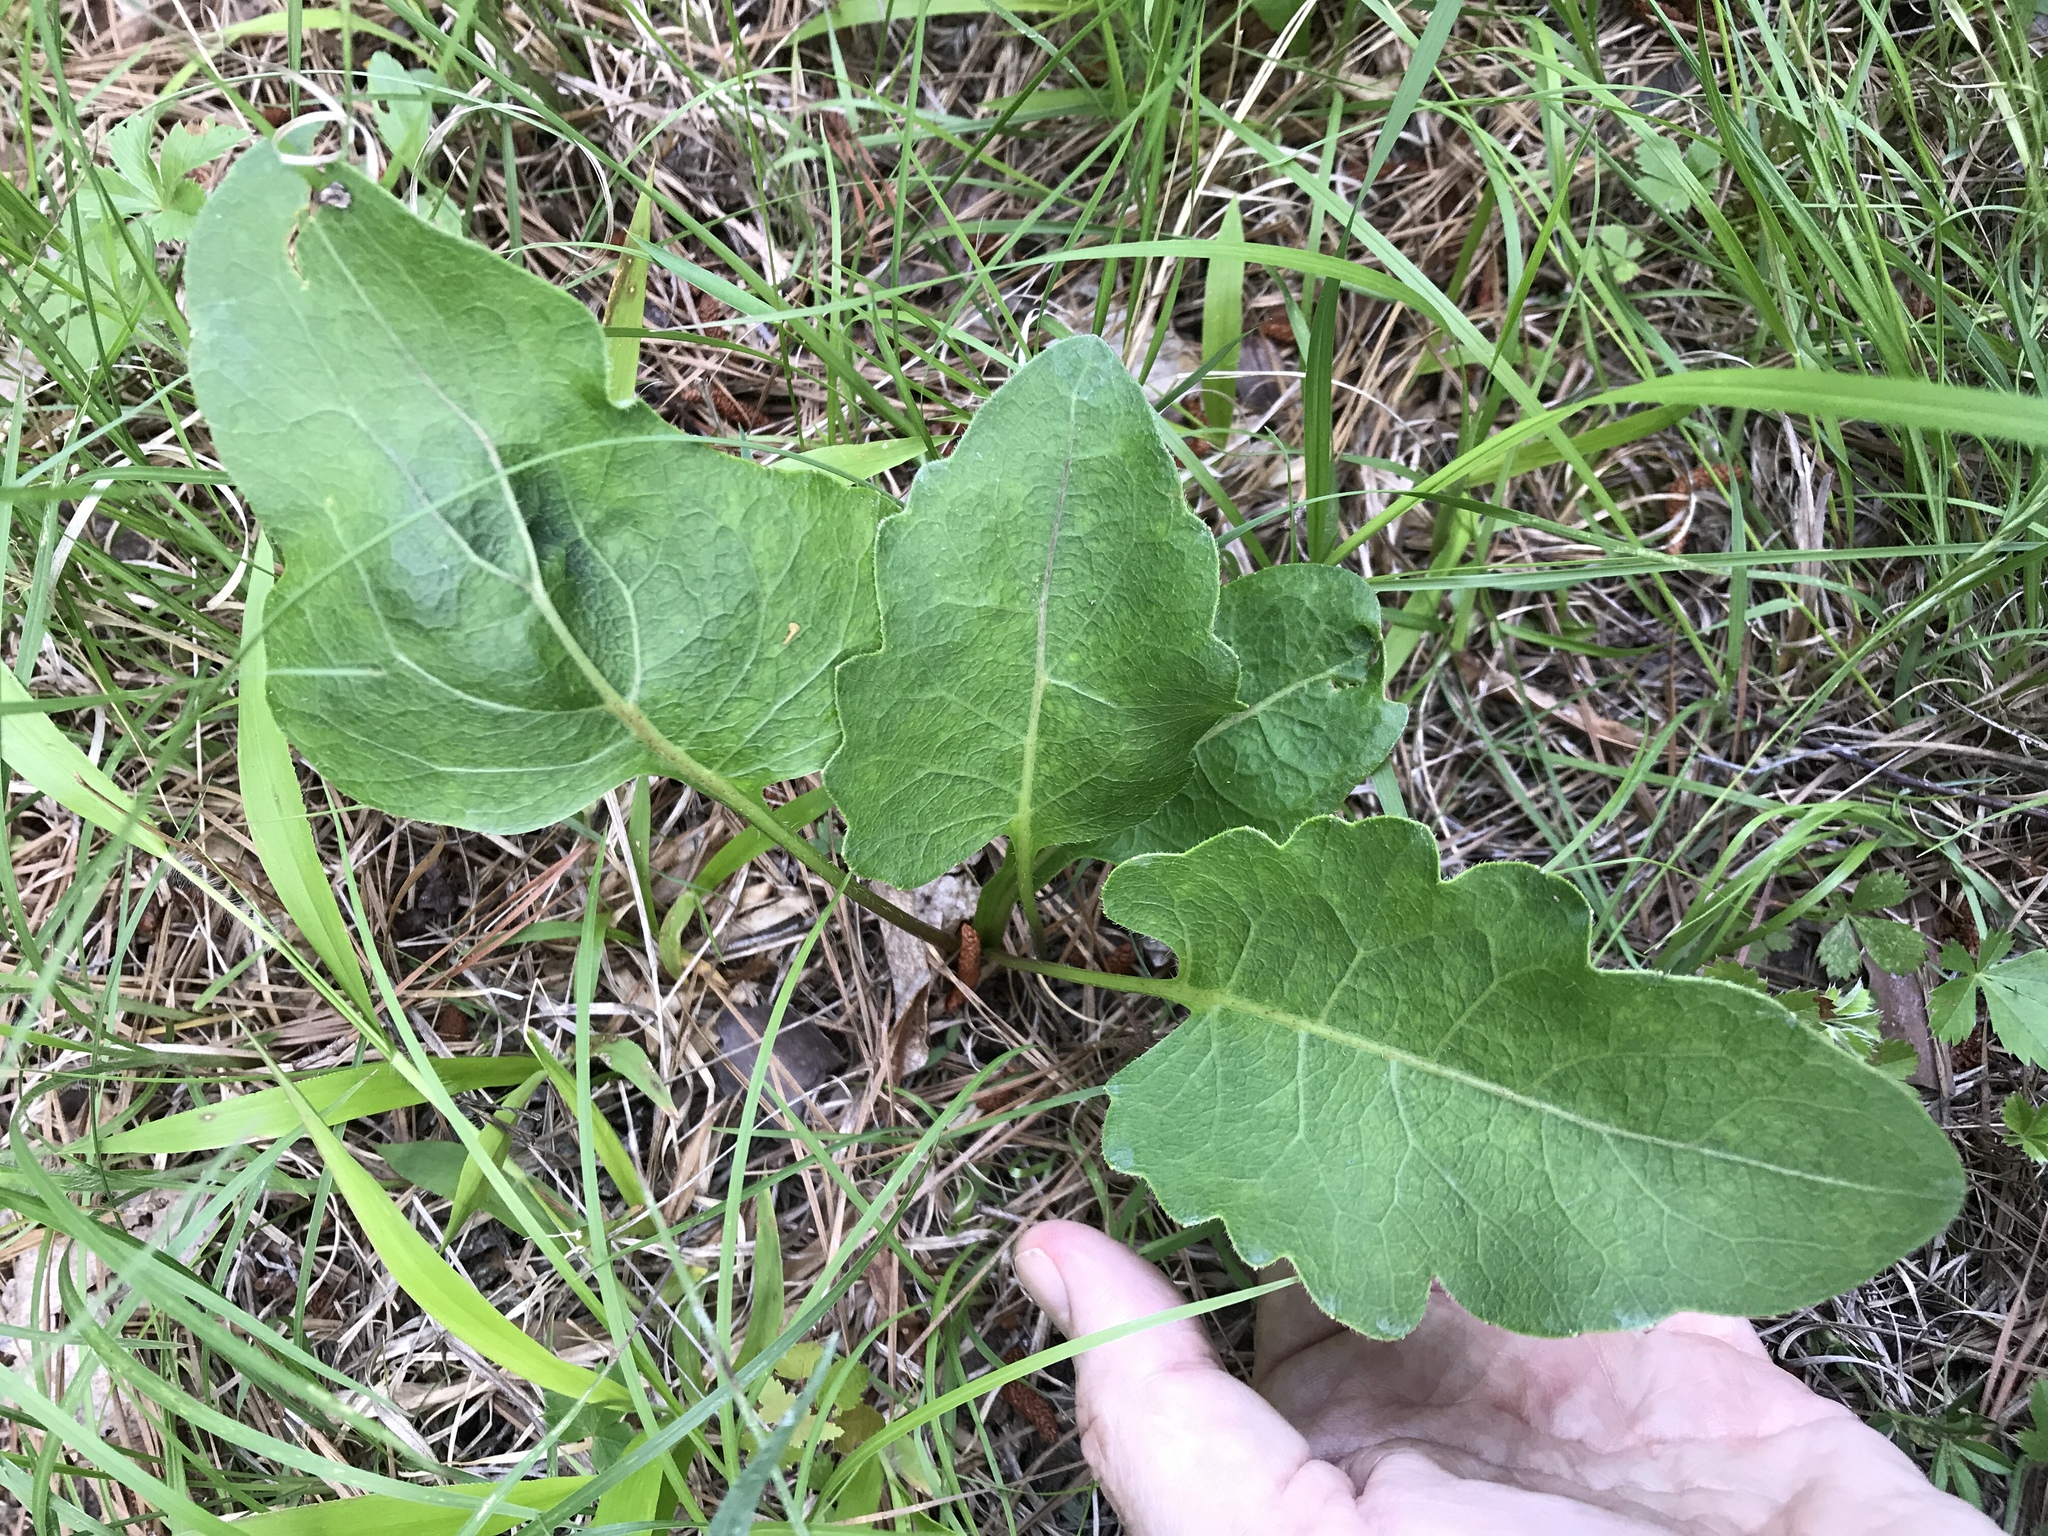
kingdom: Plantae
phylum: Tracheophyta
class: Magnoliopsida
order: Asterales
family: Asteraceae
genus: Silphium
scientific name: Silphium compositum
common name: Lesser basal-leaf rosinweed
